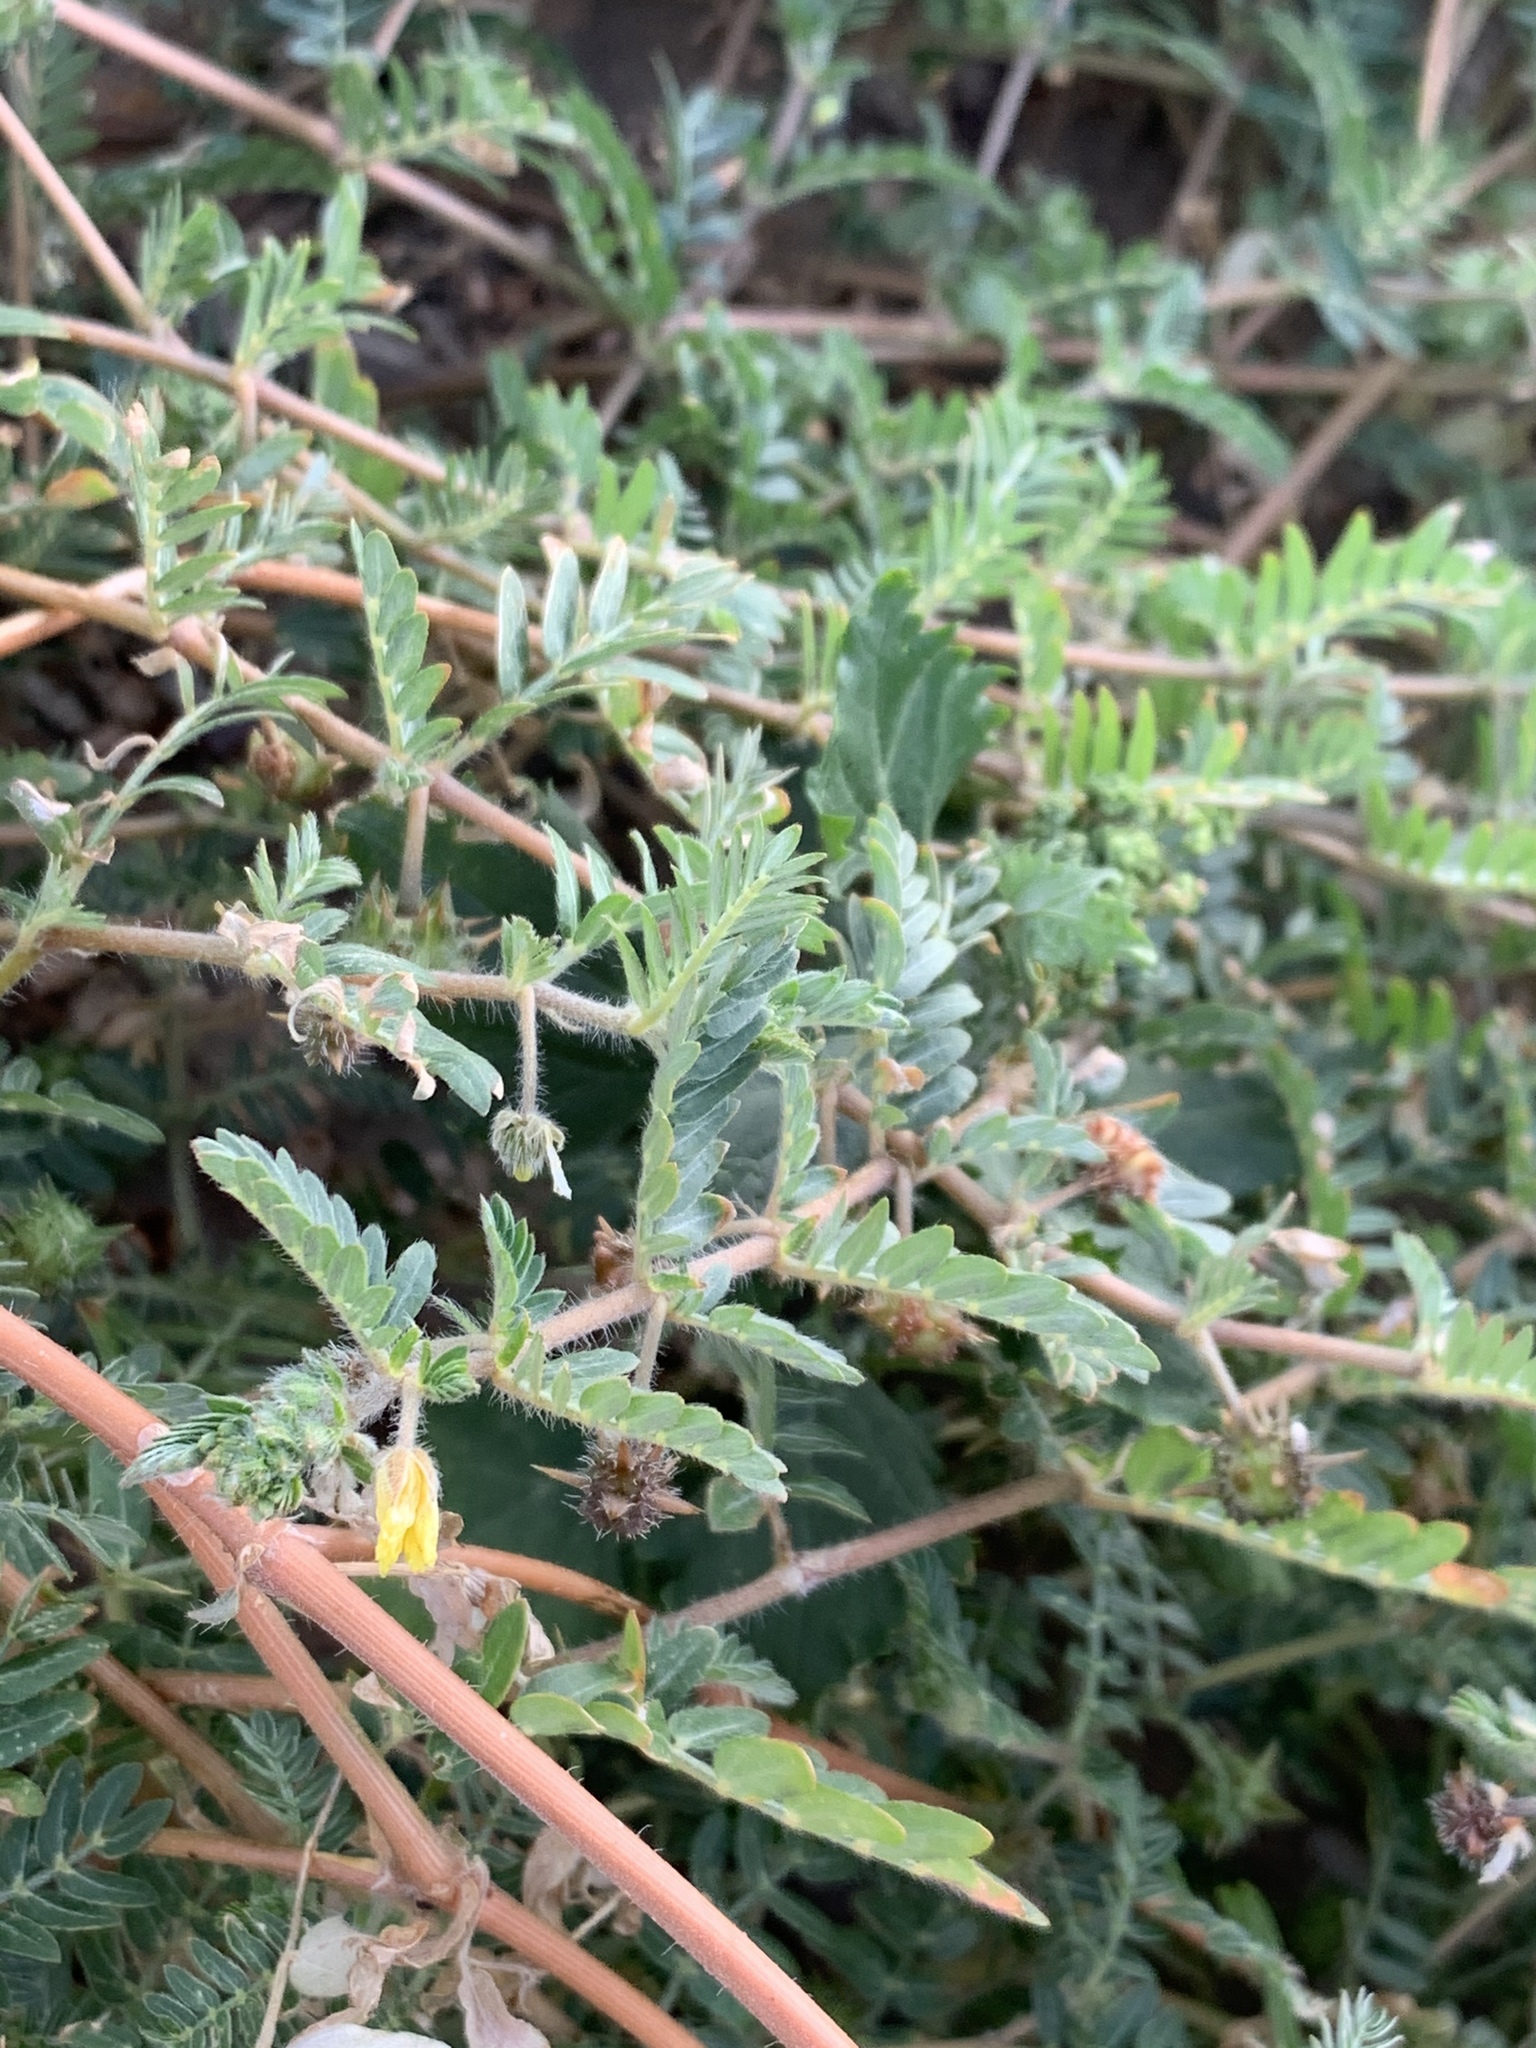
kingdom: Plantae
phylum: Tracheophyta
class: Magnoliopsida
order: Zygophyllales
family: Zygophyllaceae
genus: Tribulus
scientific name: Tribulus terrestris
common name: Puncturevine
